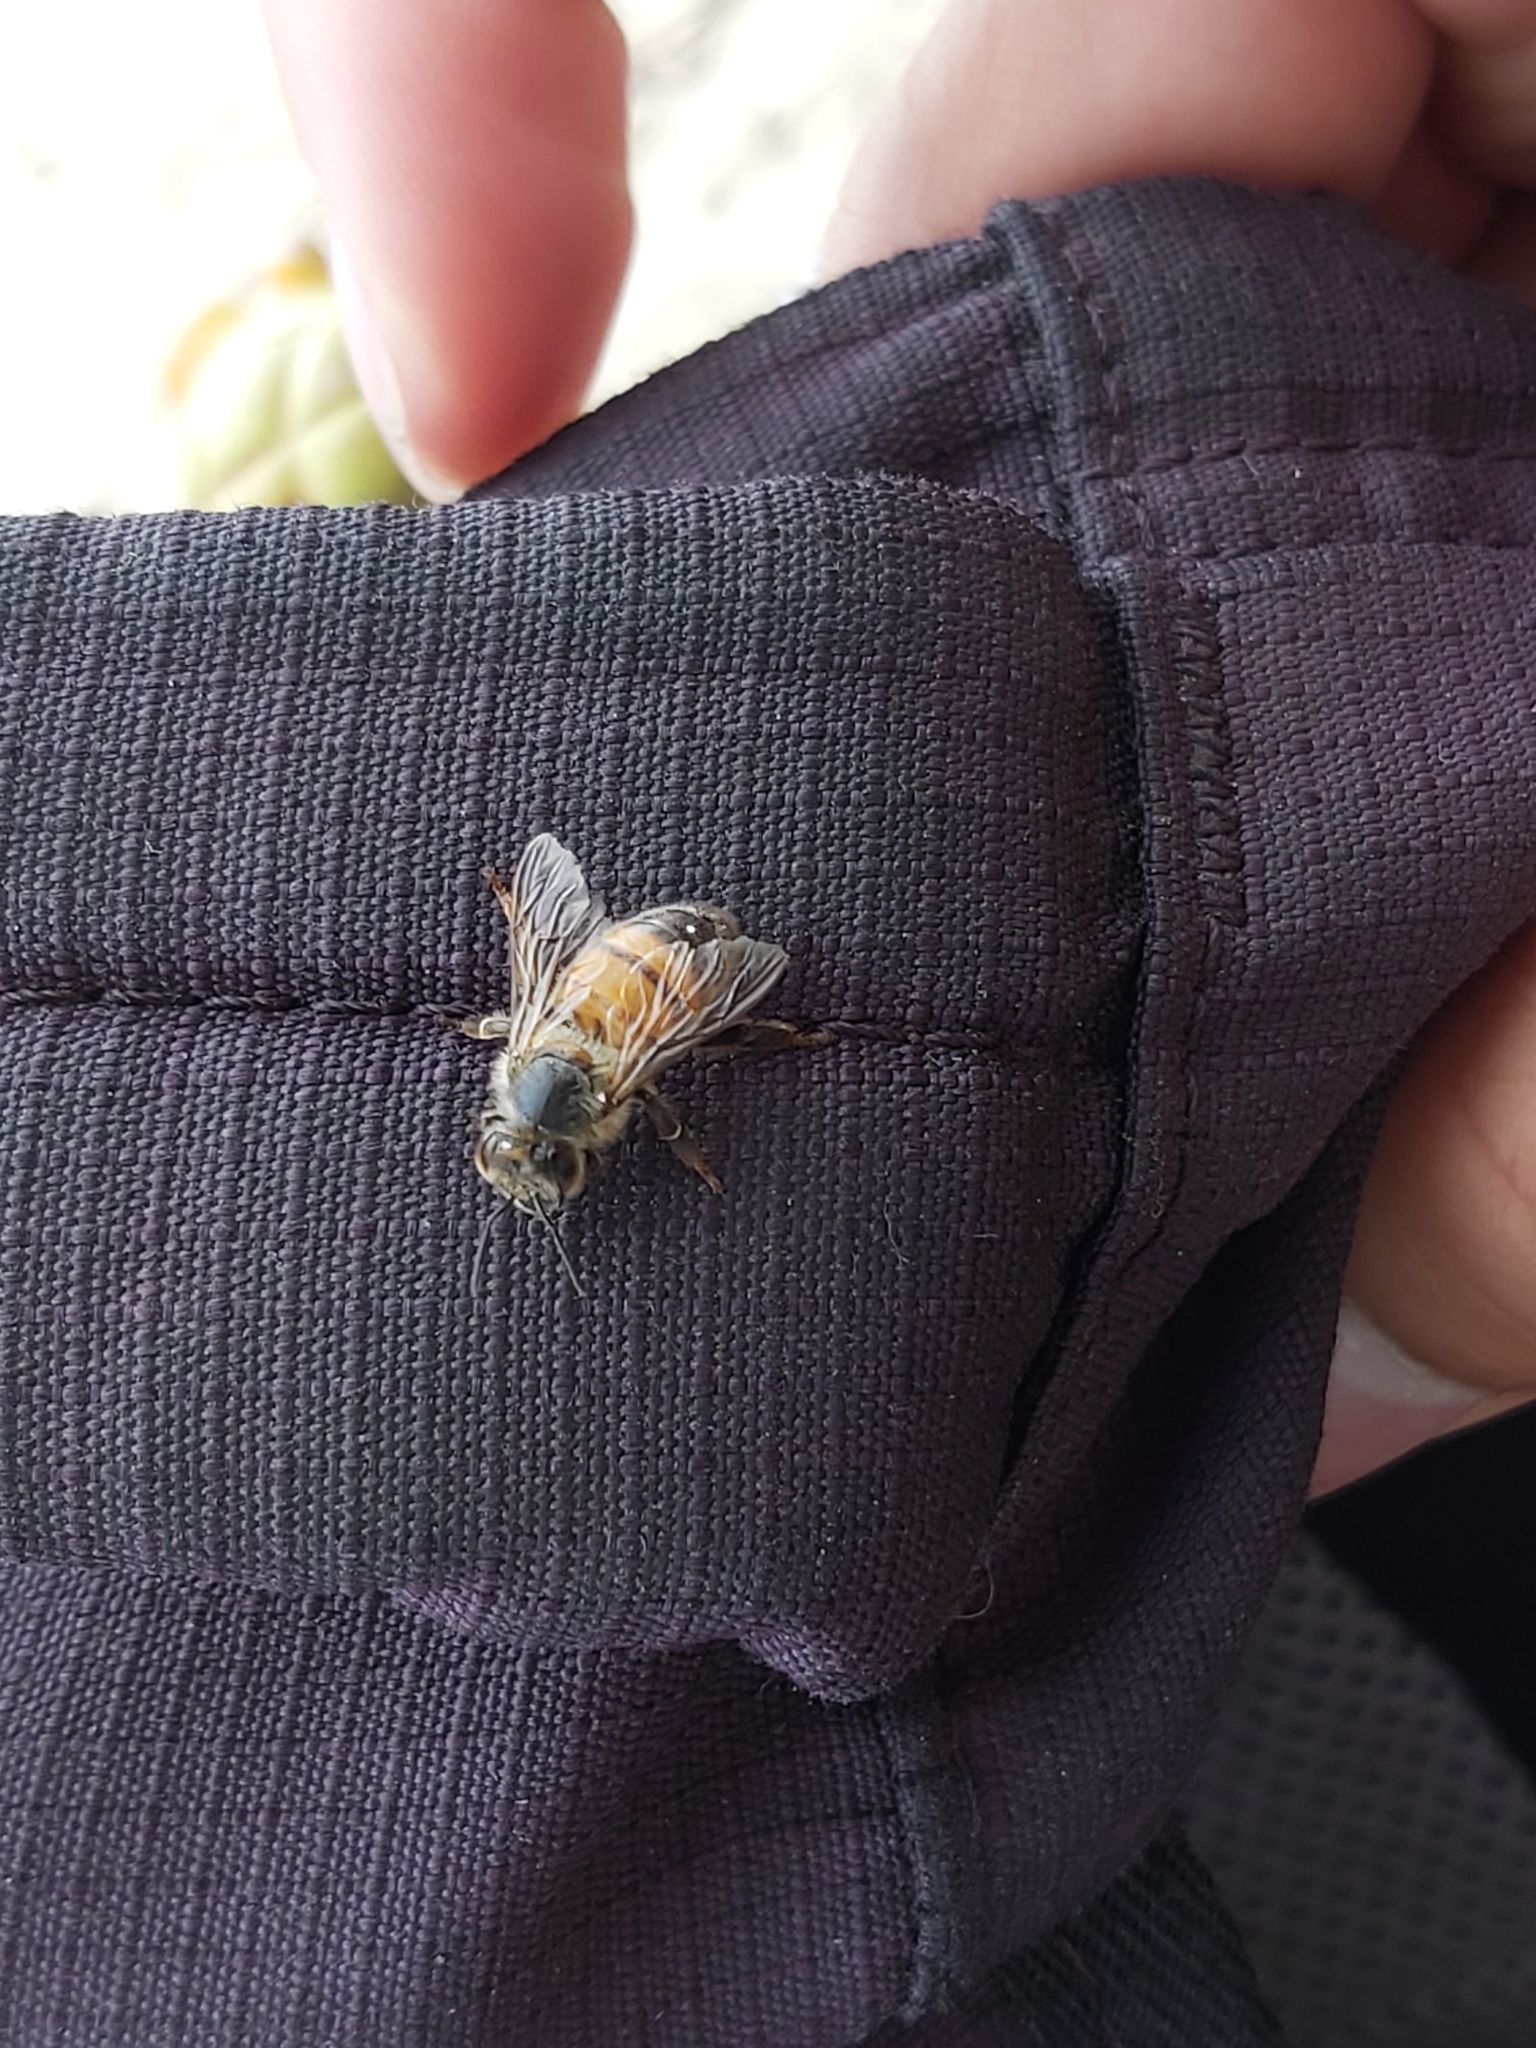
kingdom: Animalia
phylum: Arthropoda
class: Insecta
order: Hymenoptera
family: Apidae
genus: Apis
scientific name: Apis mellifera
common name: Honey bee
